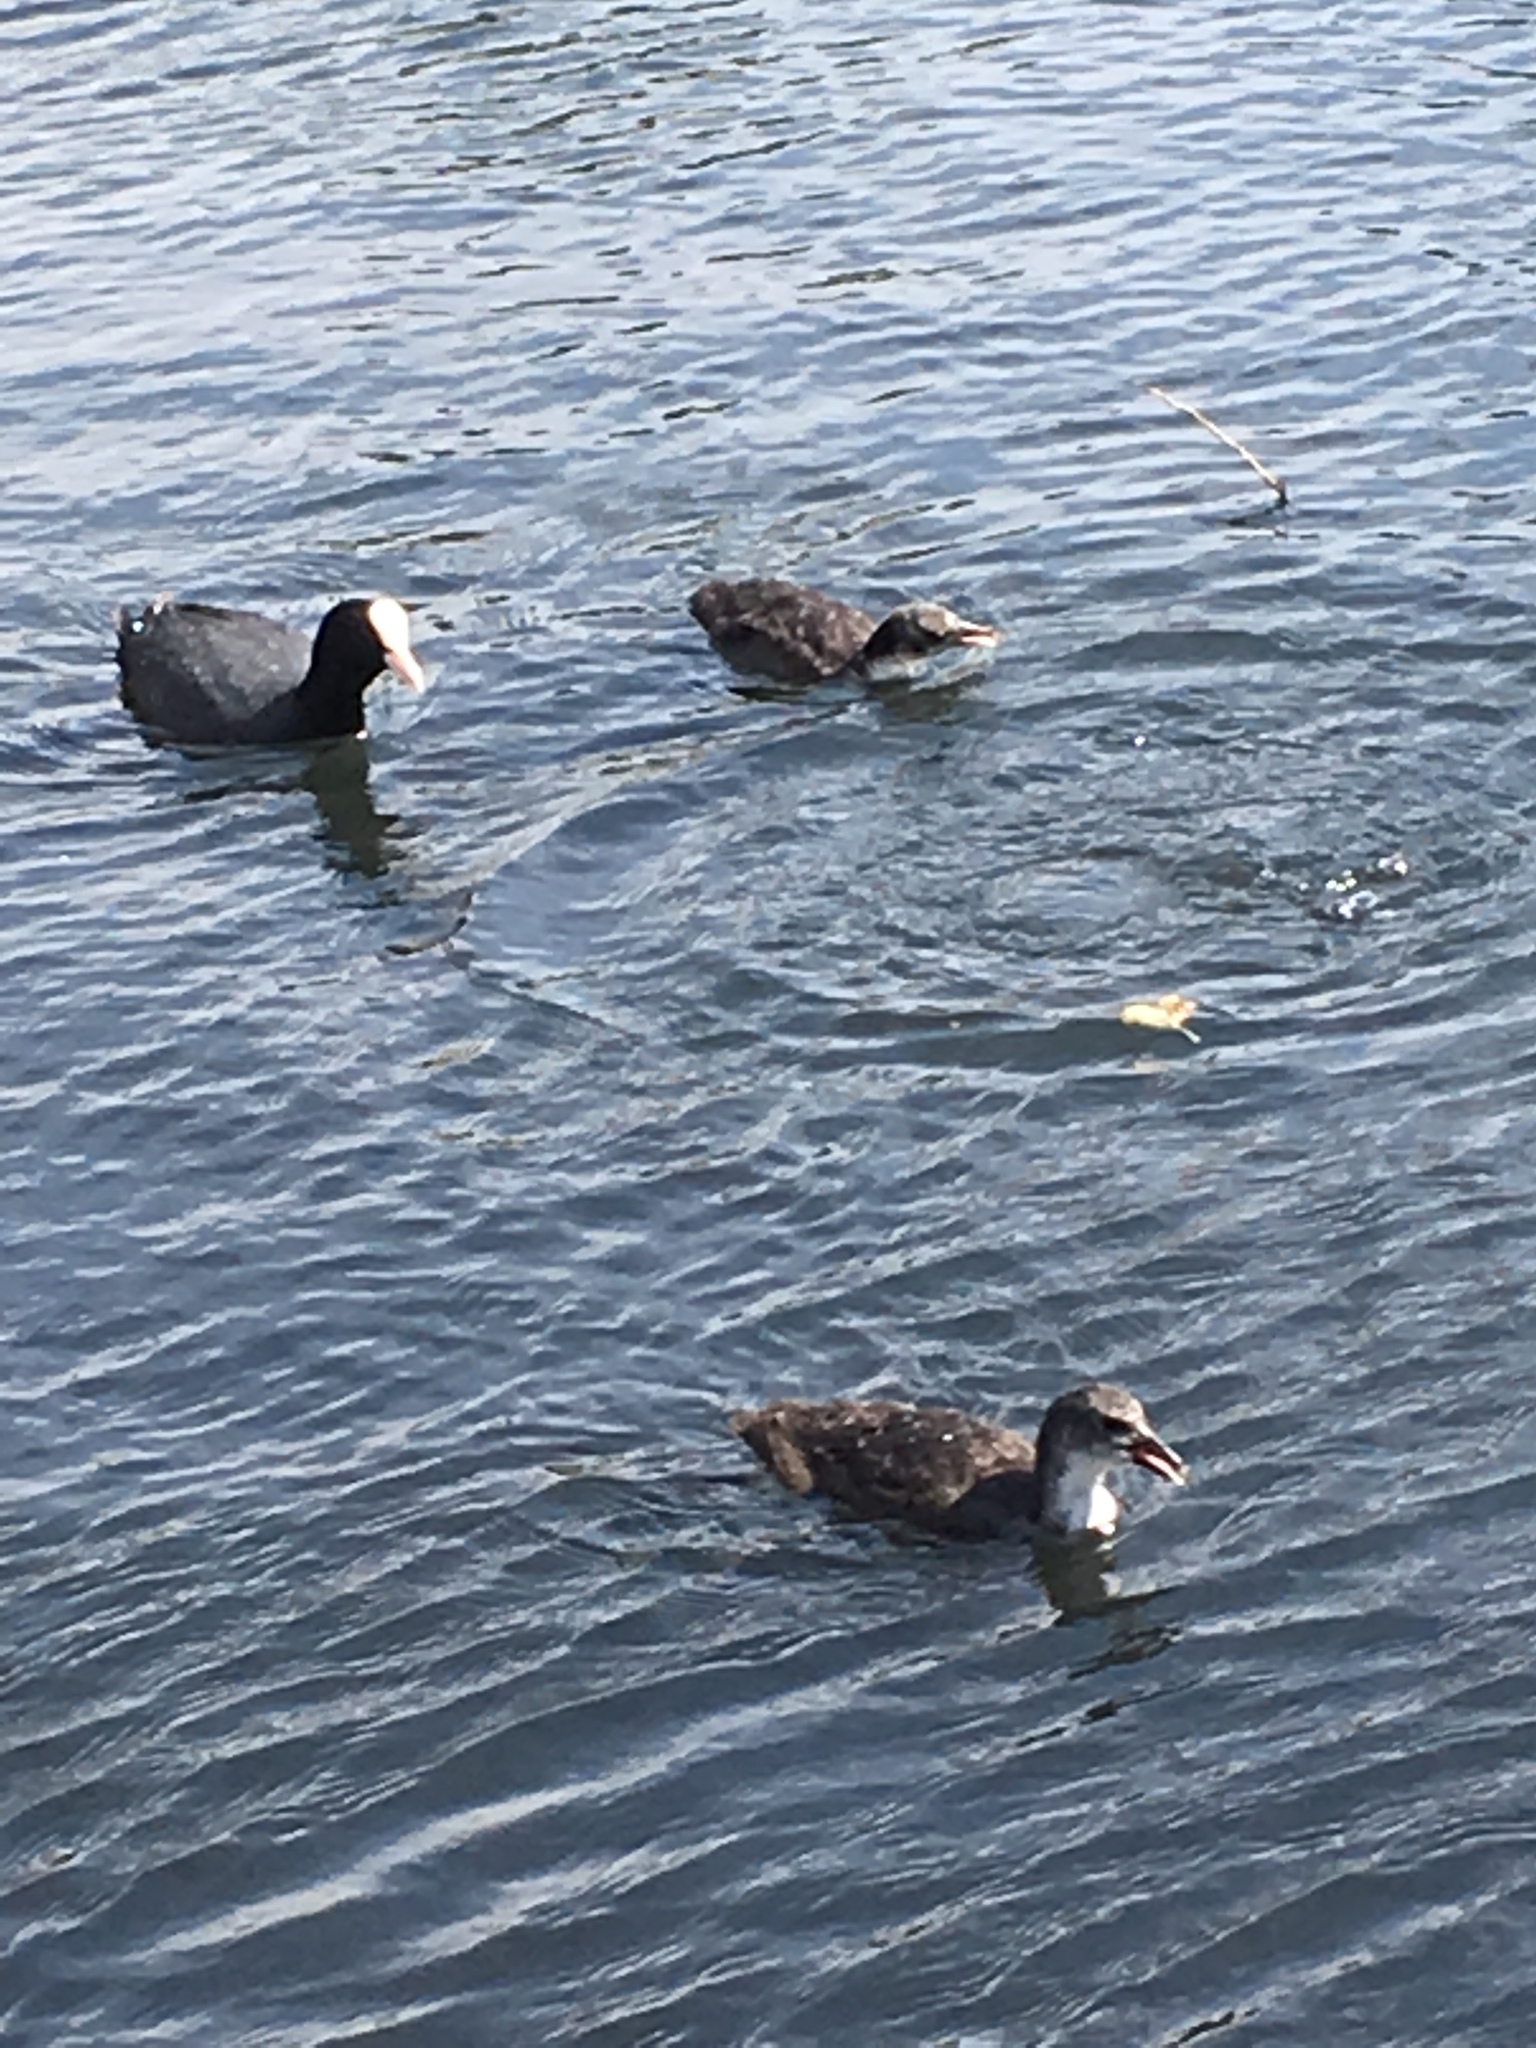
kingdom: Animalia
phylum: Chordata
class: Aves
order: Gruiformes
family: Rallidae
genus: Fulica
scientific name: Fulica atra
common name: Eurasian coot
